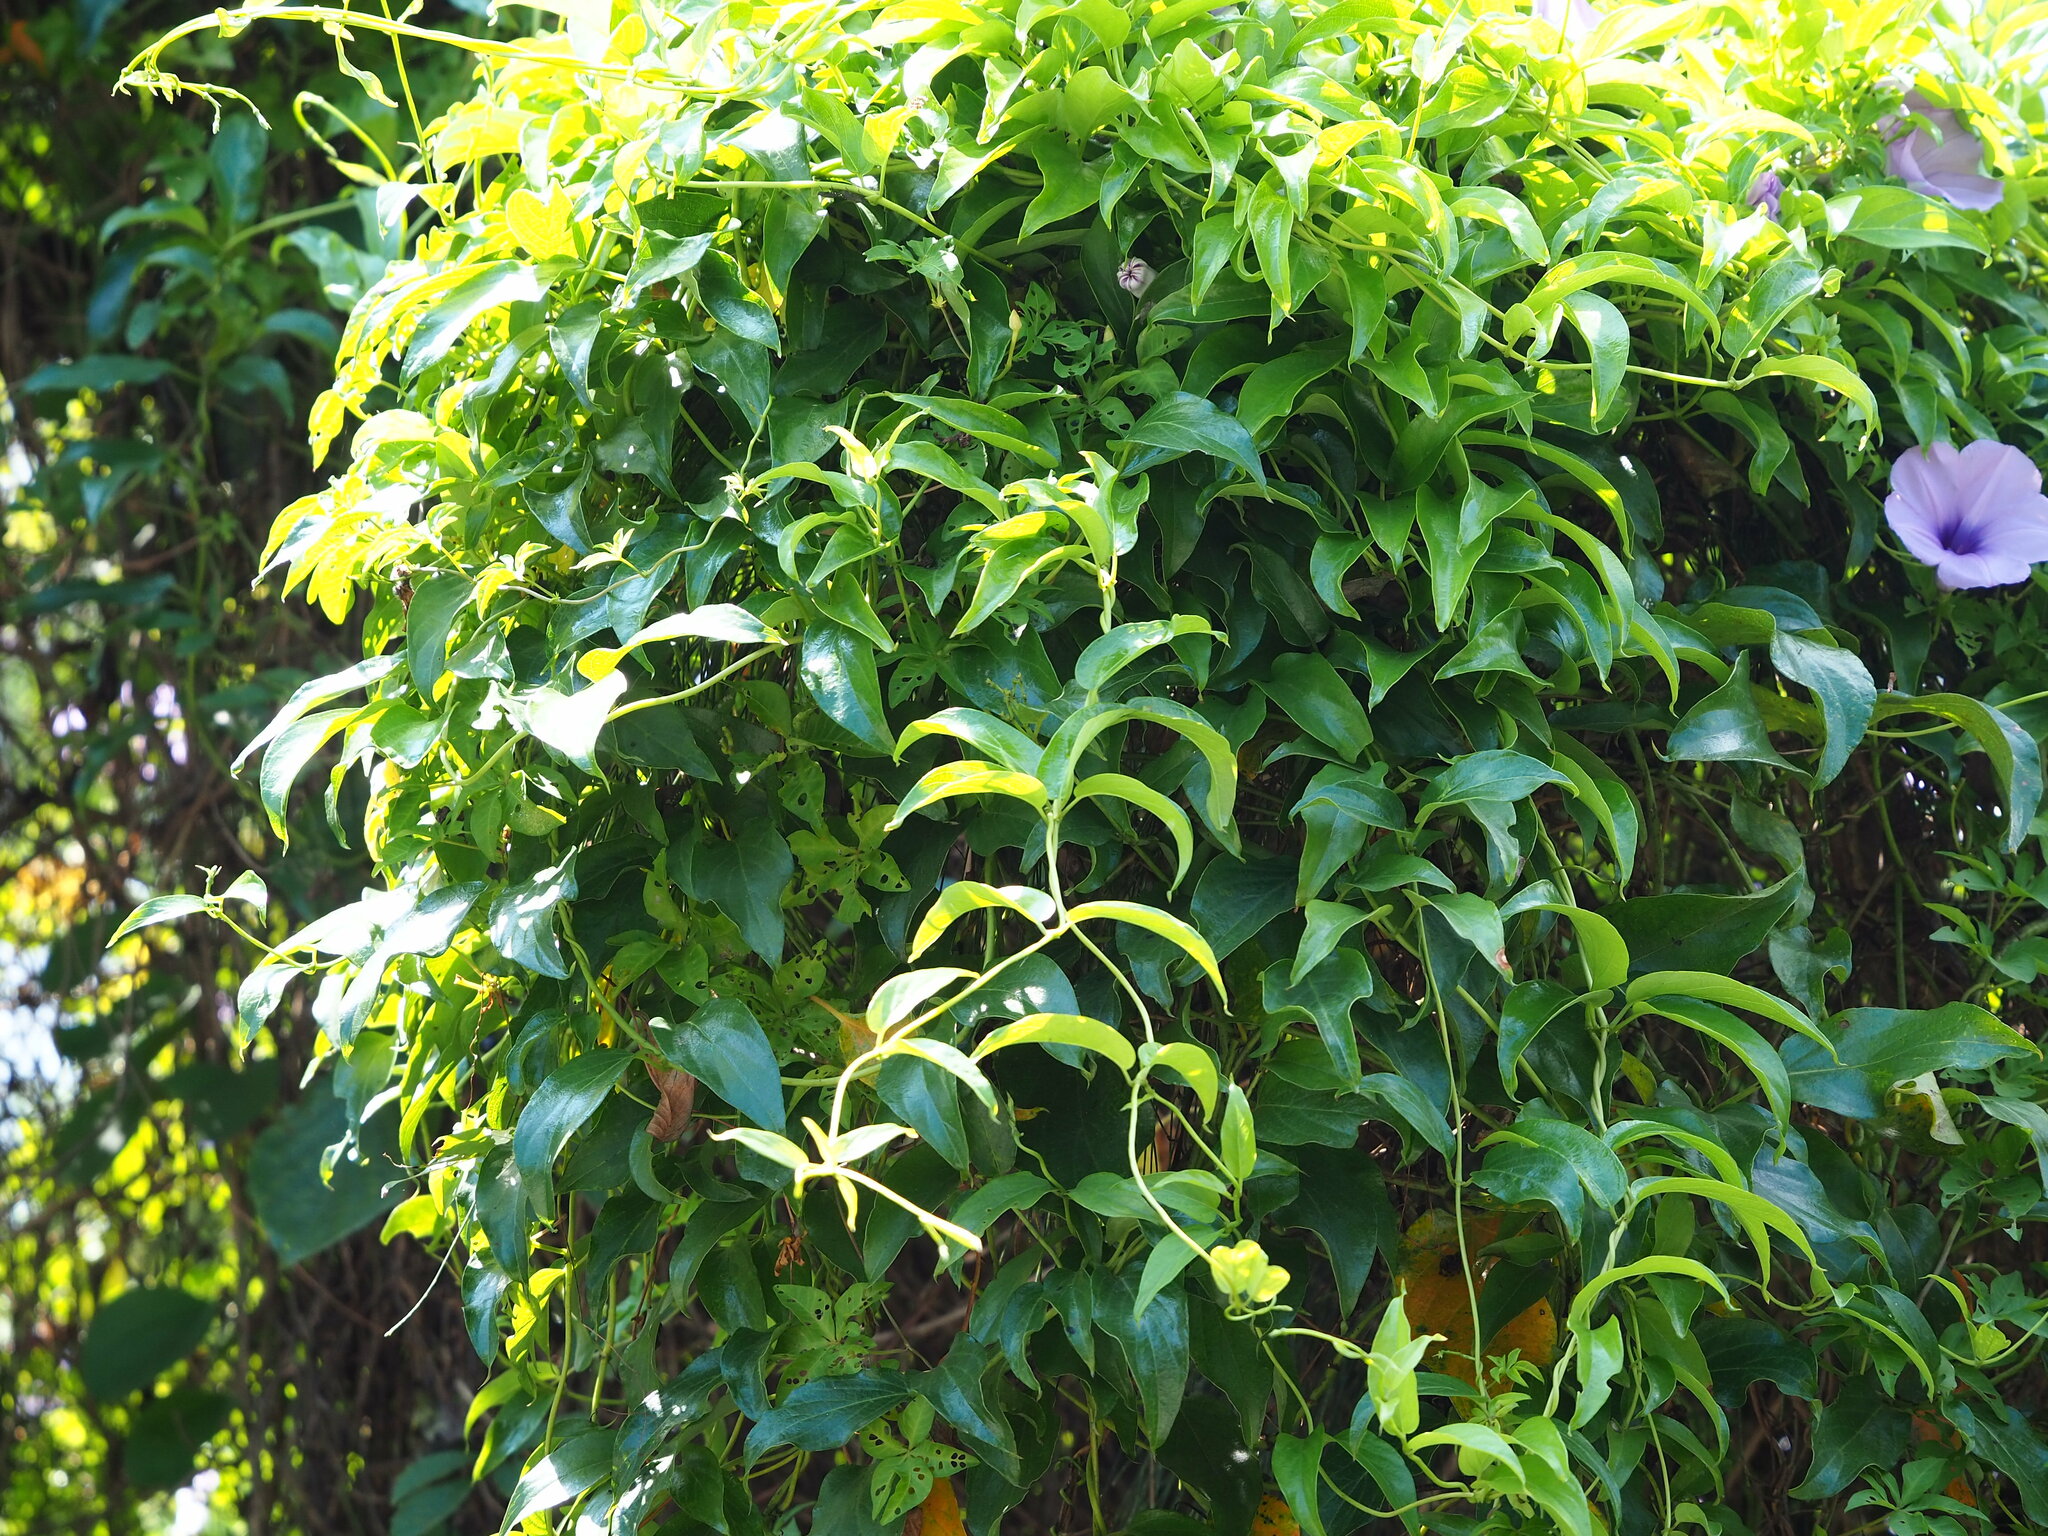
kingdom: Plantae
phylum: Tracheophyta
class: Magnoliopsida
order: Gentianales
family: Rubiaceae
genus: Paederia
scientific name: Paederia foetida
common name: Stinkvine
